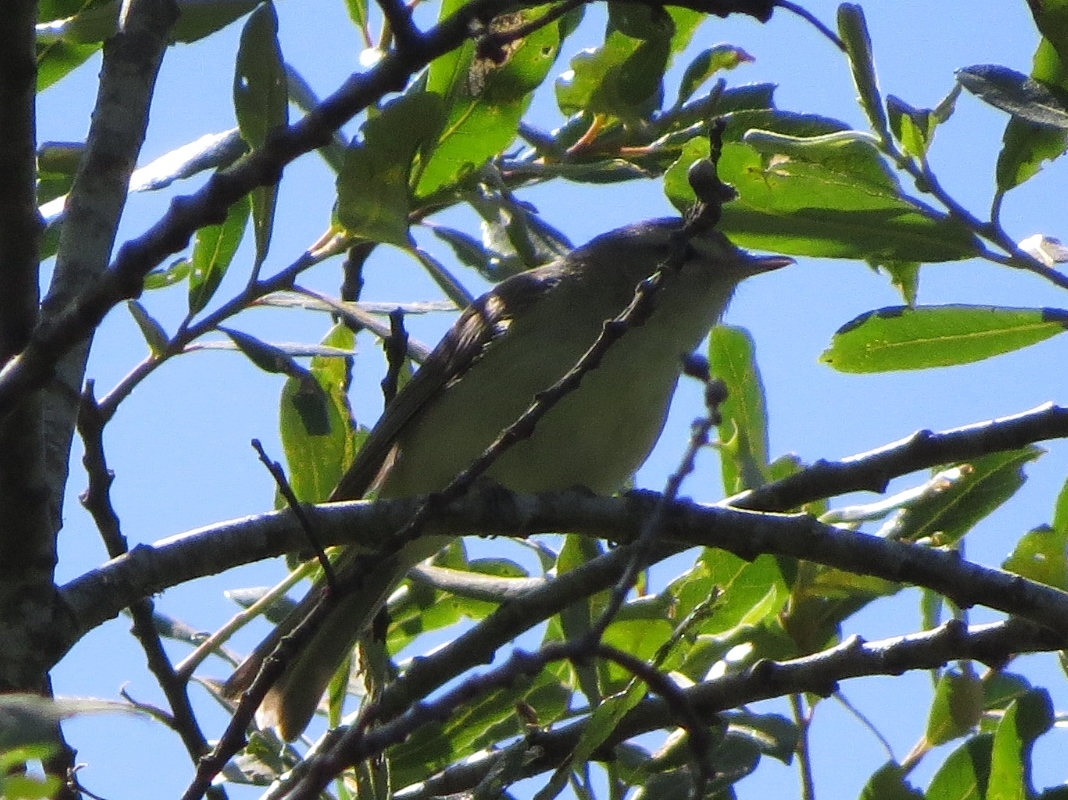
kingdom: Animalia
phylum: Chordata
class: Aves
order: Passeriformes
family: Vireonidae
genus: Vireo
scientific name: Vireo gilvus
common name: Warbling vireo
